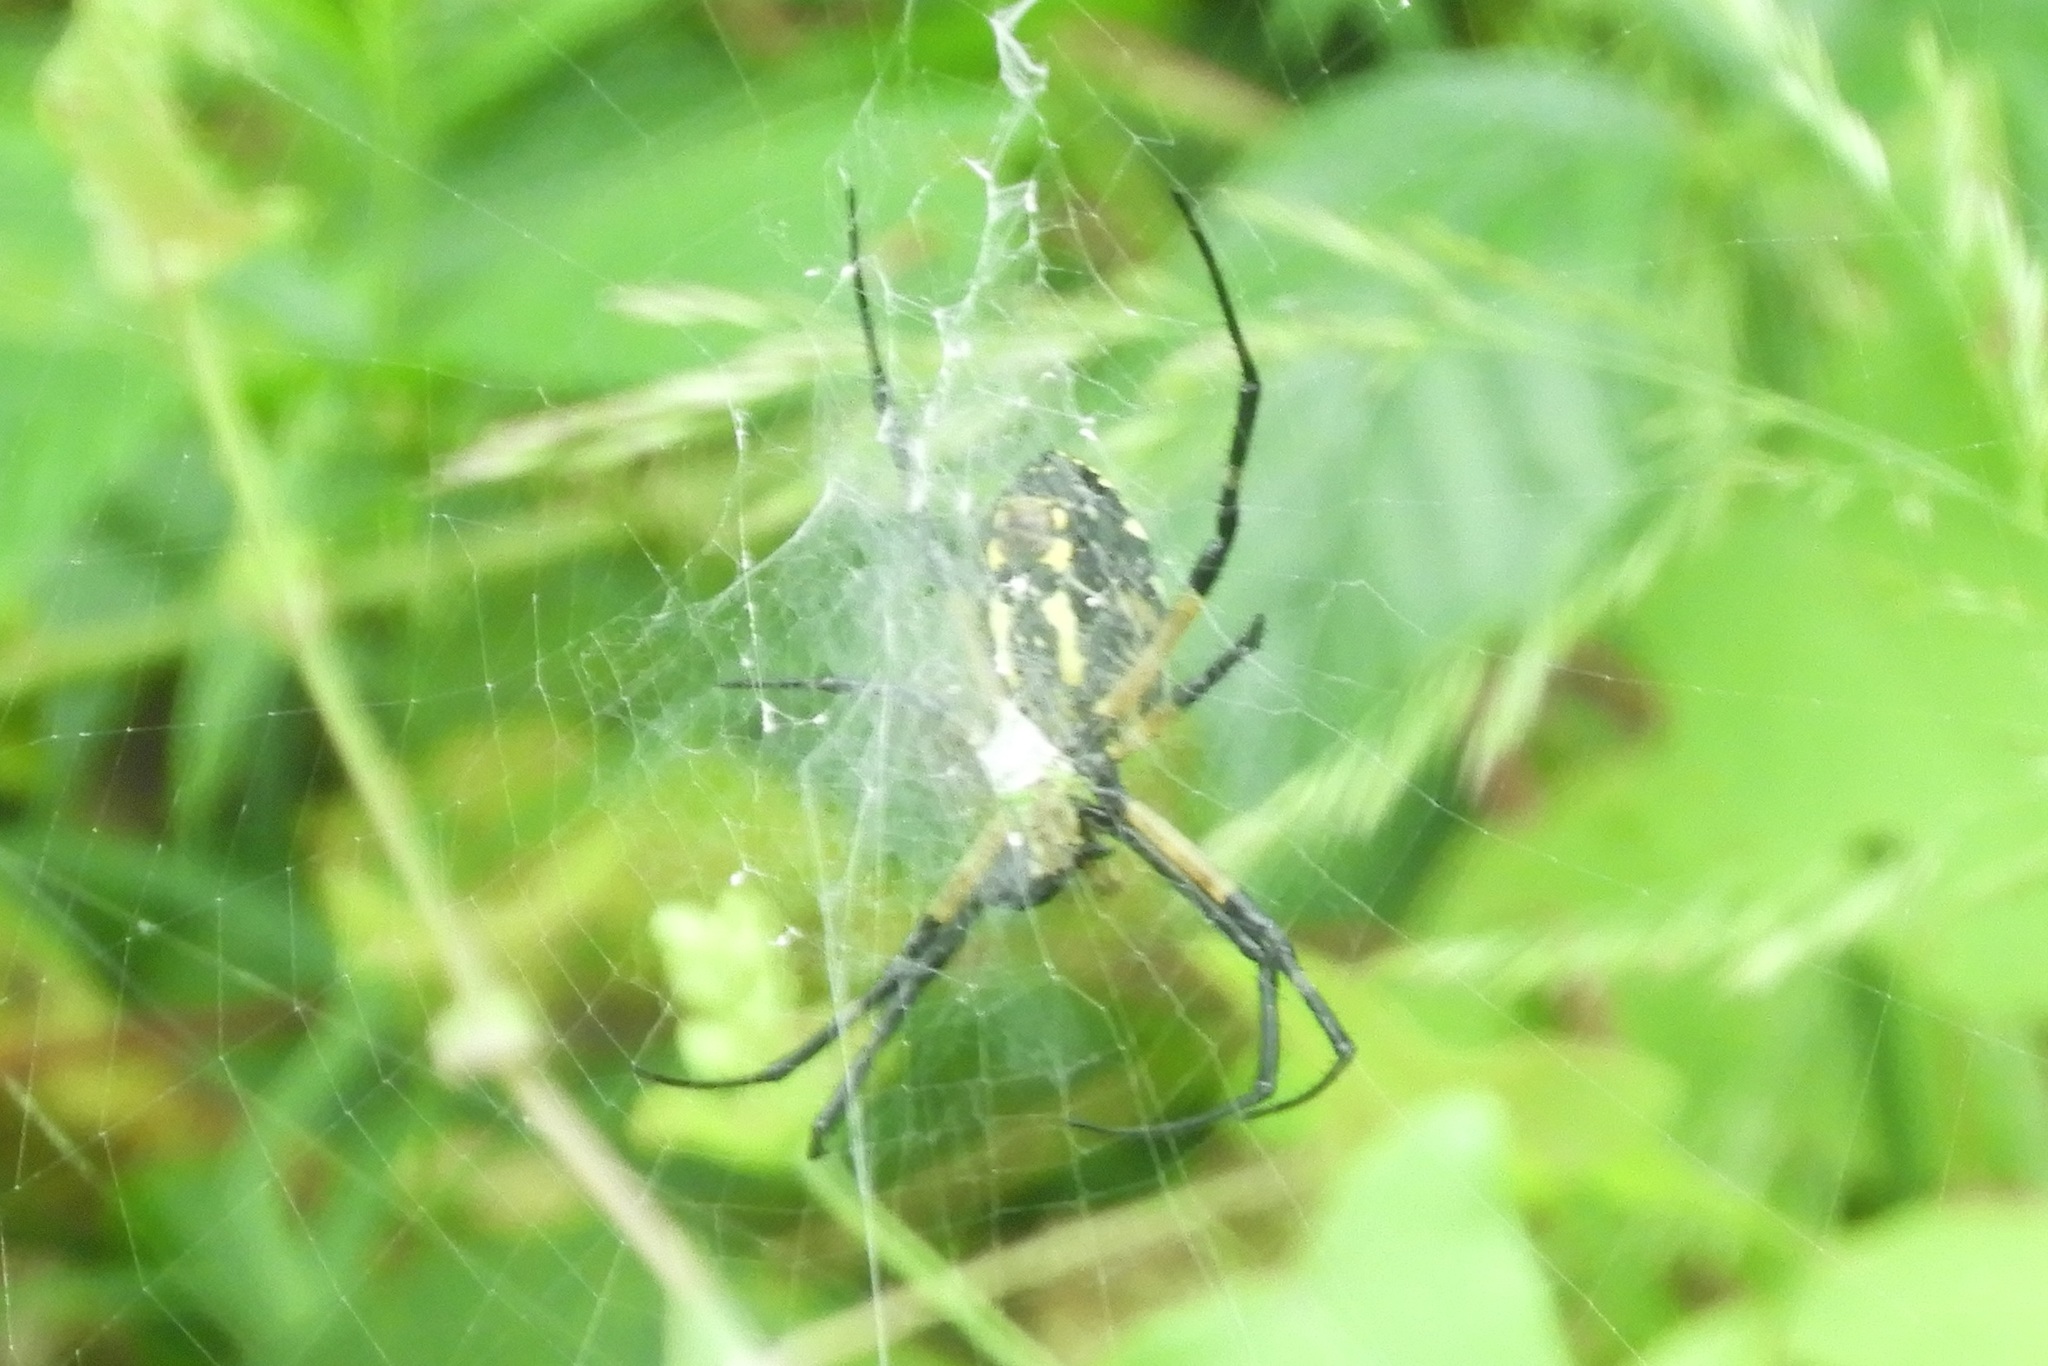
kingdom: Animalia
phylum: Arthropoda
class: Arachnida
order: Araneae
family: Araneidae
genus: Argiope
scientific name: Argiope aurantia
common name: Orb weavers
